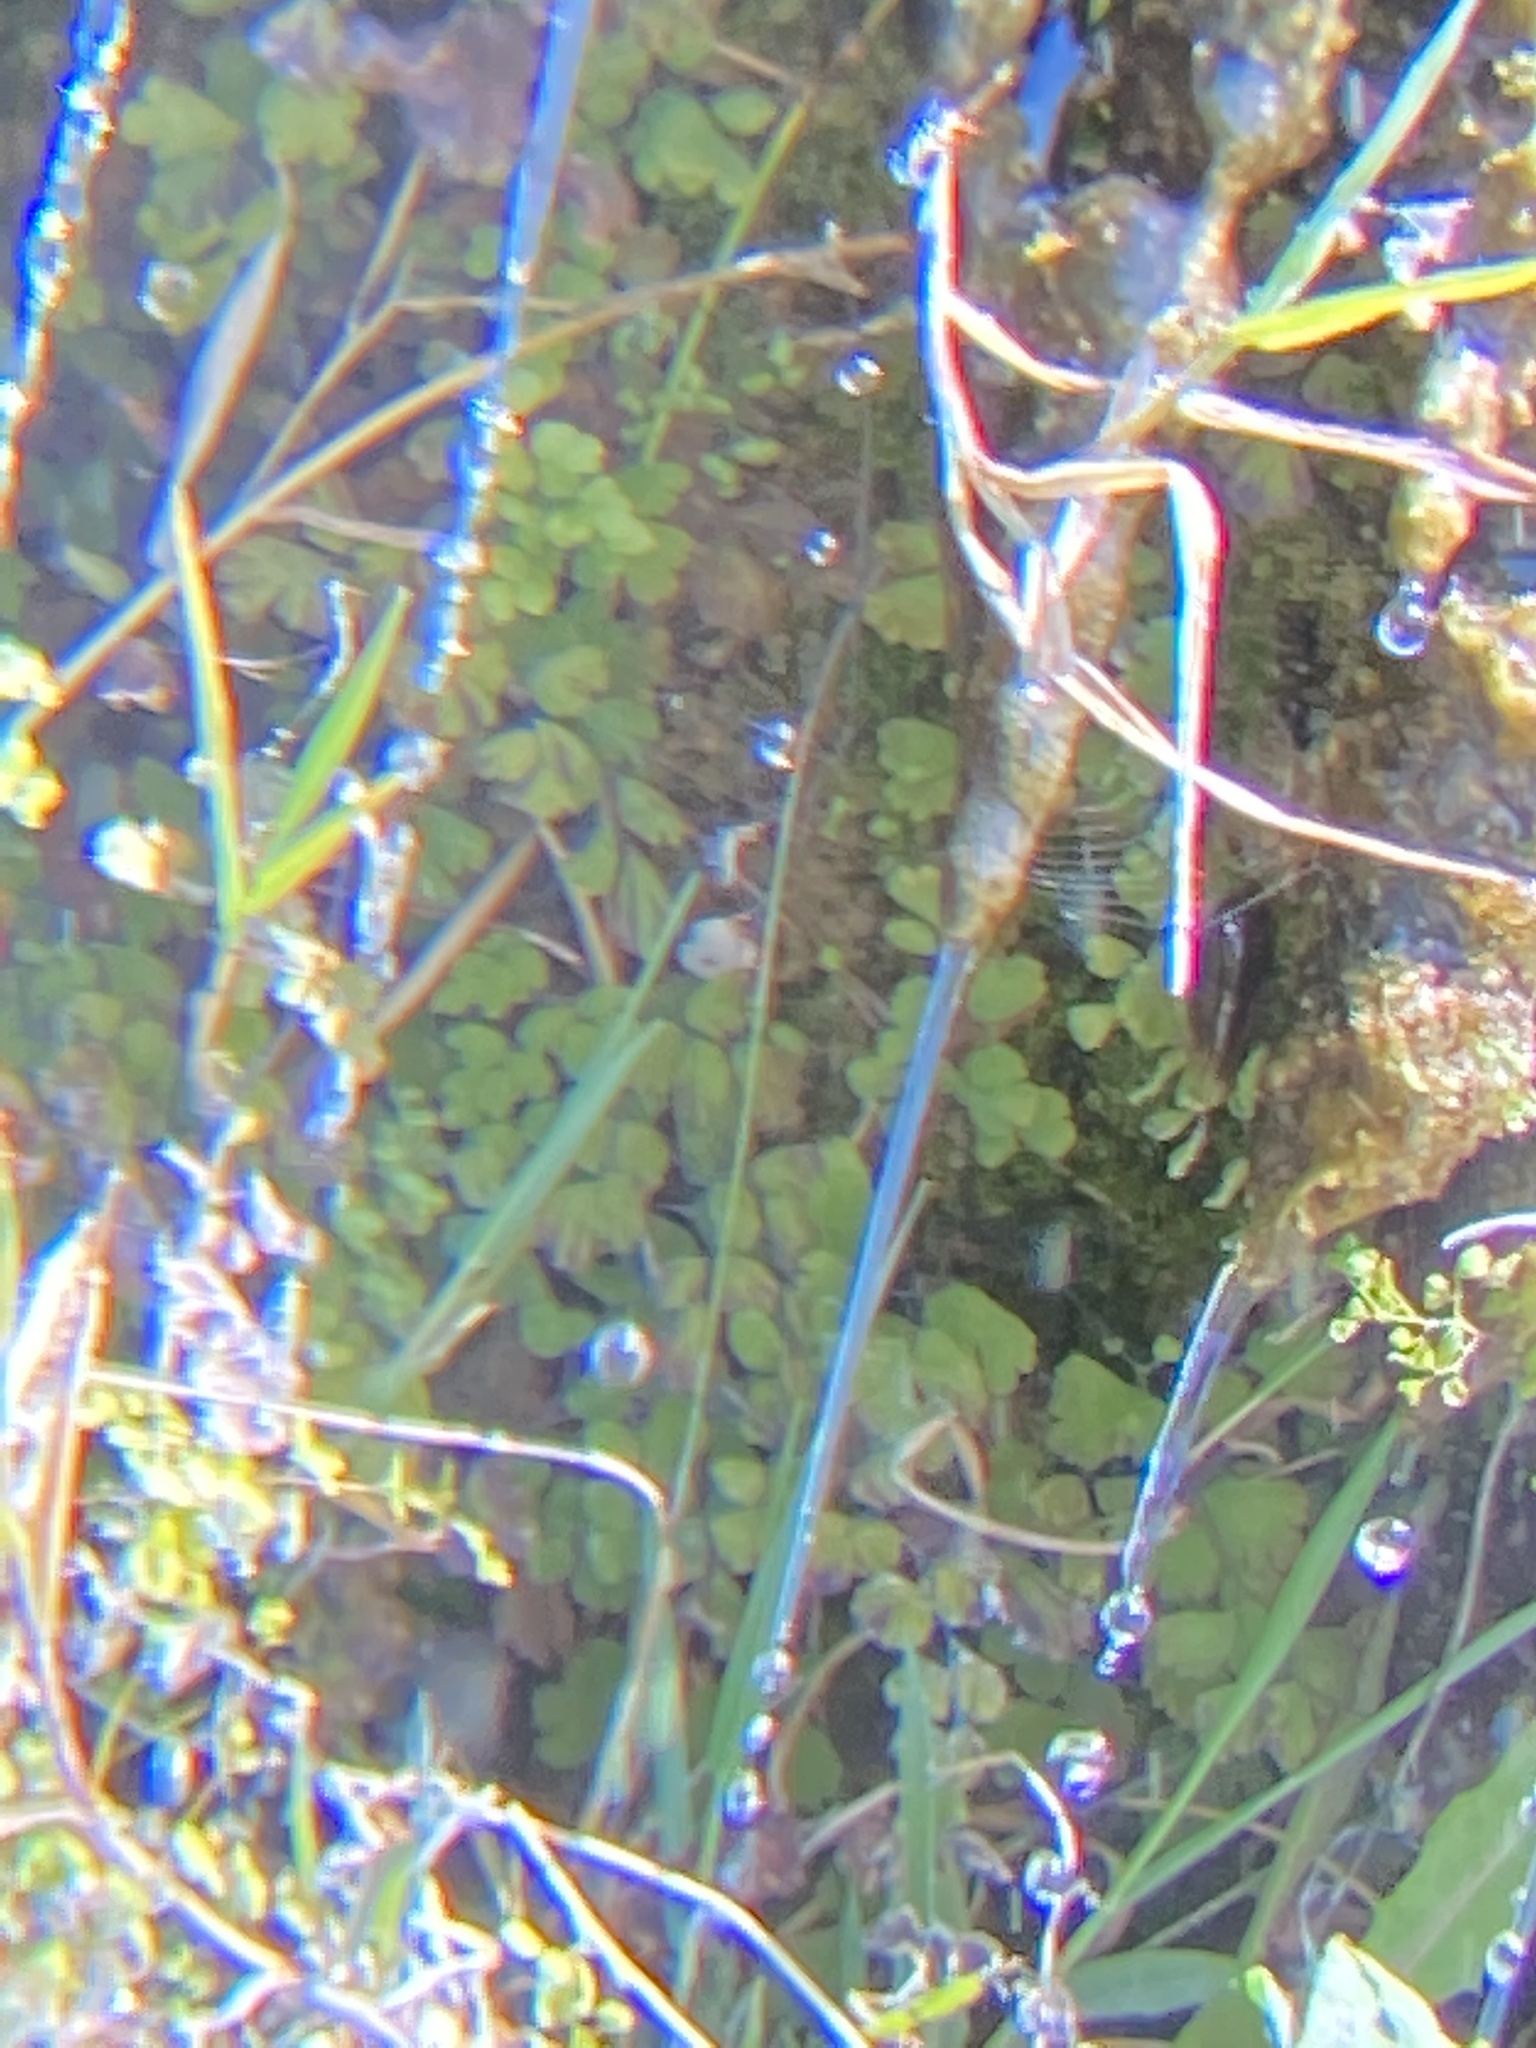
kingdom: Plantae
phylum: Tracheophyta
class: Polypodiopsida
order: Polypodiales
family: Pteridaceae
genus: Adiantum
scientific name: Adiantum capillus-veneris
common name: Maidenhair fern
